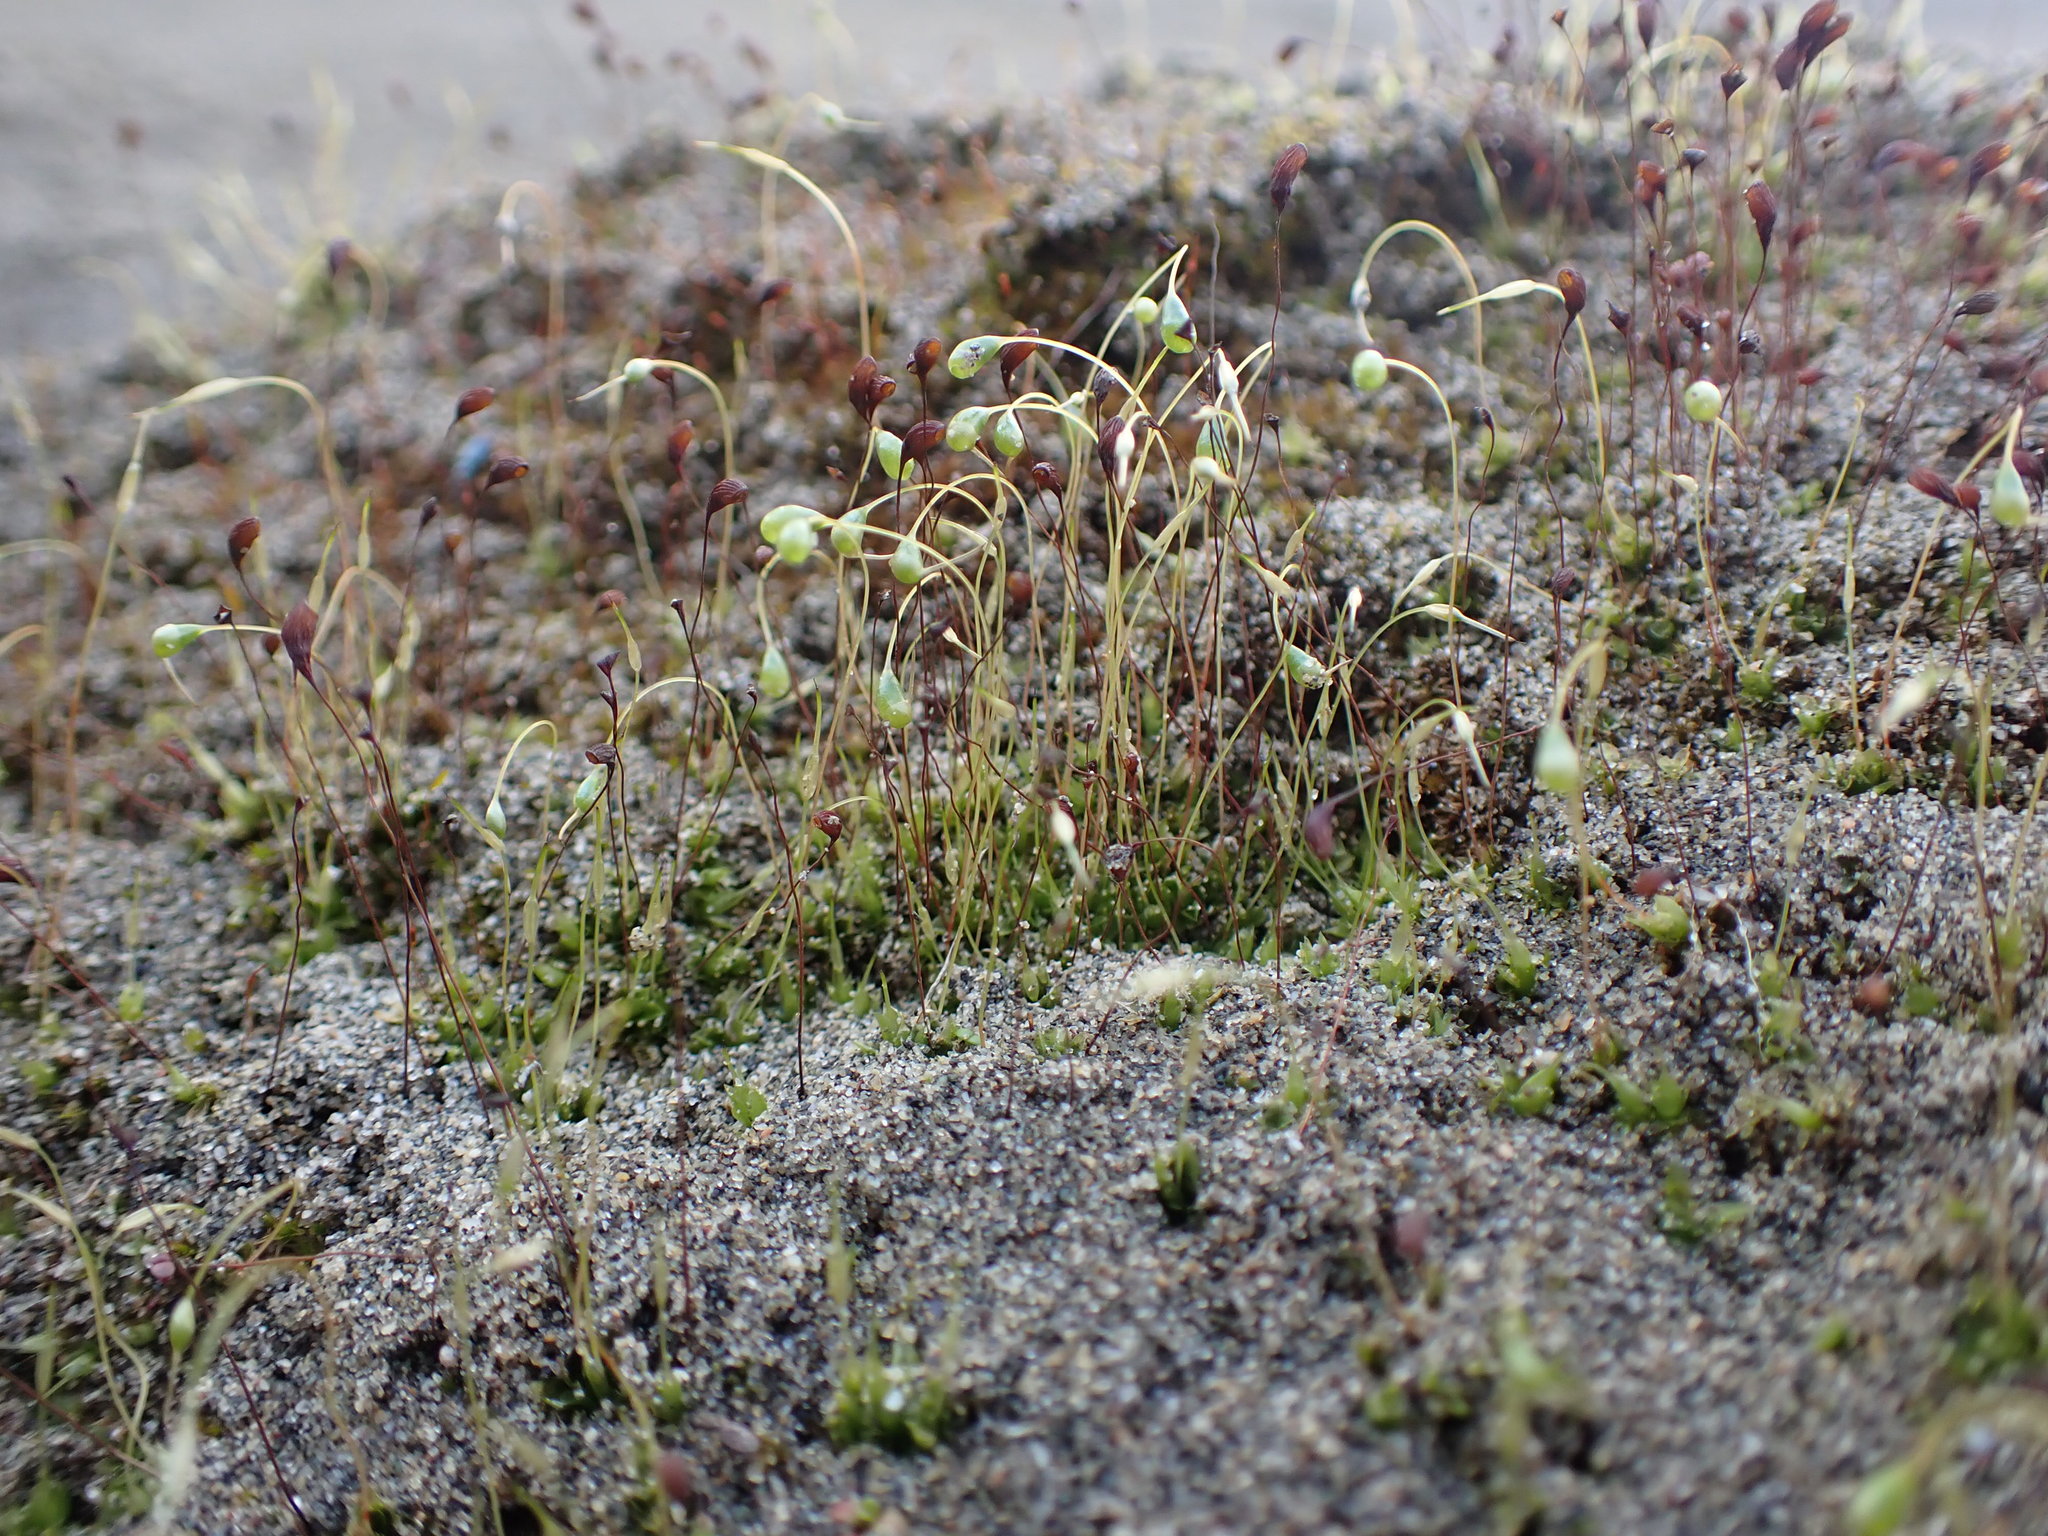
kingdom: Plantae
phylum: Bryophyta
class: Bryopsida
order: Funariales
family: Funariaceae
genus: Funaria
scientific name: Funaria hygrometrica
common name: Common cord moss
